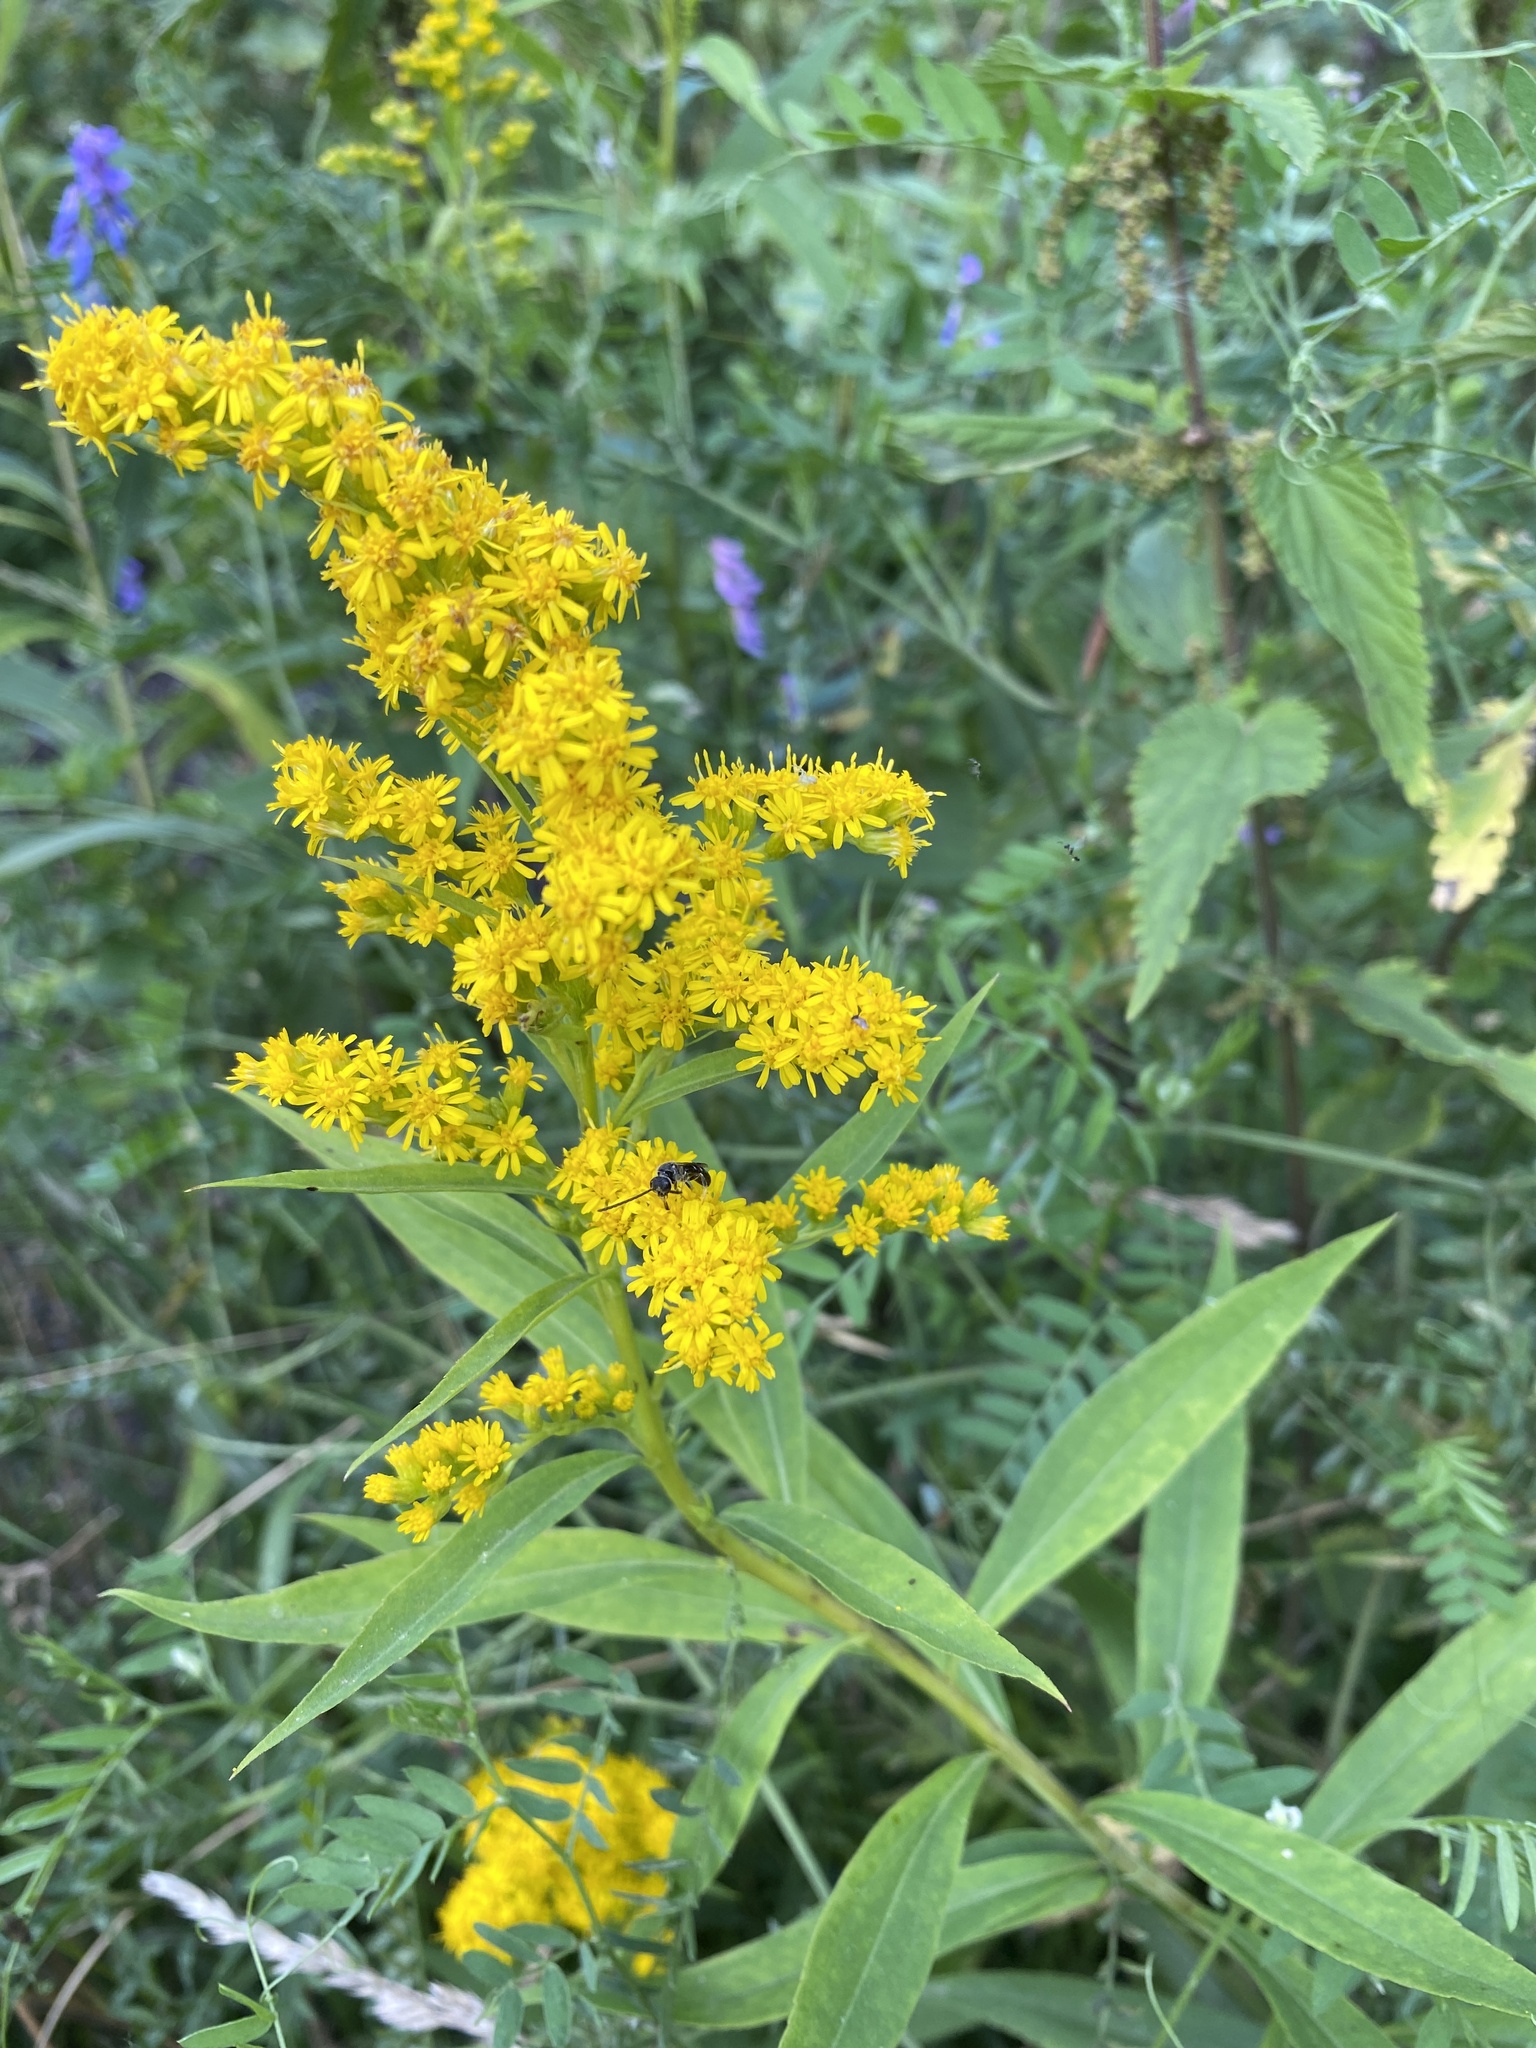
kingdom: Plantae
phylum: Tracheophyta
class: Magnoliopsida
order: Asterales
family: Asteraceae
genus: Solidago
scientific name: Solidago gigantea
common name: Giant goldenrod
